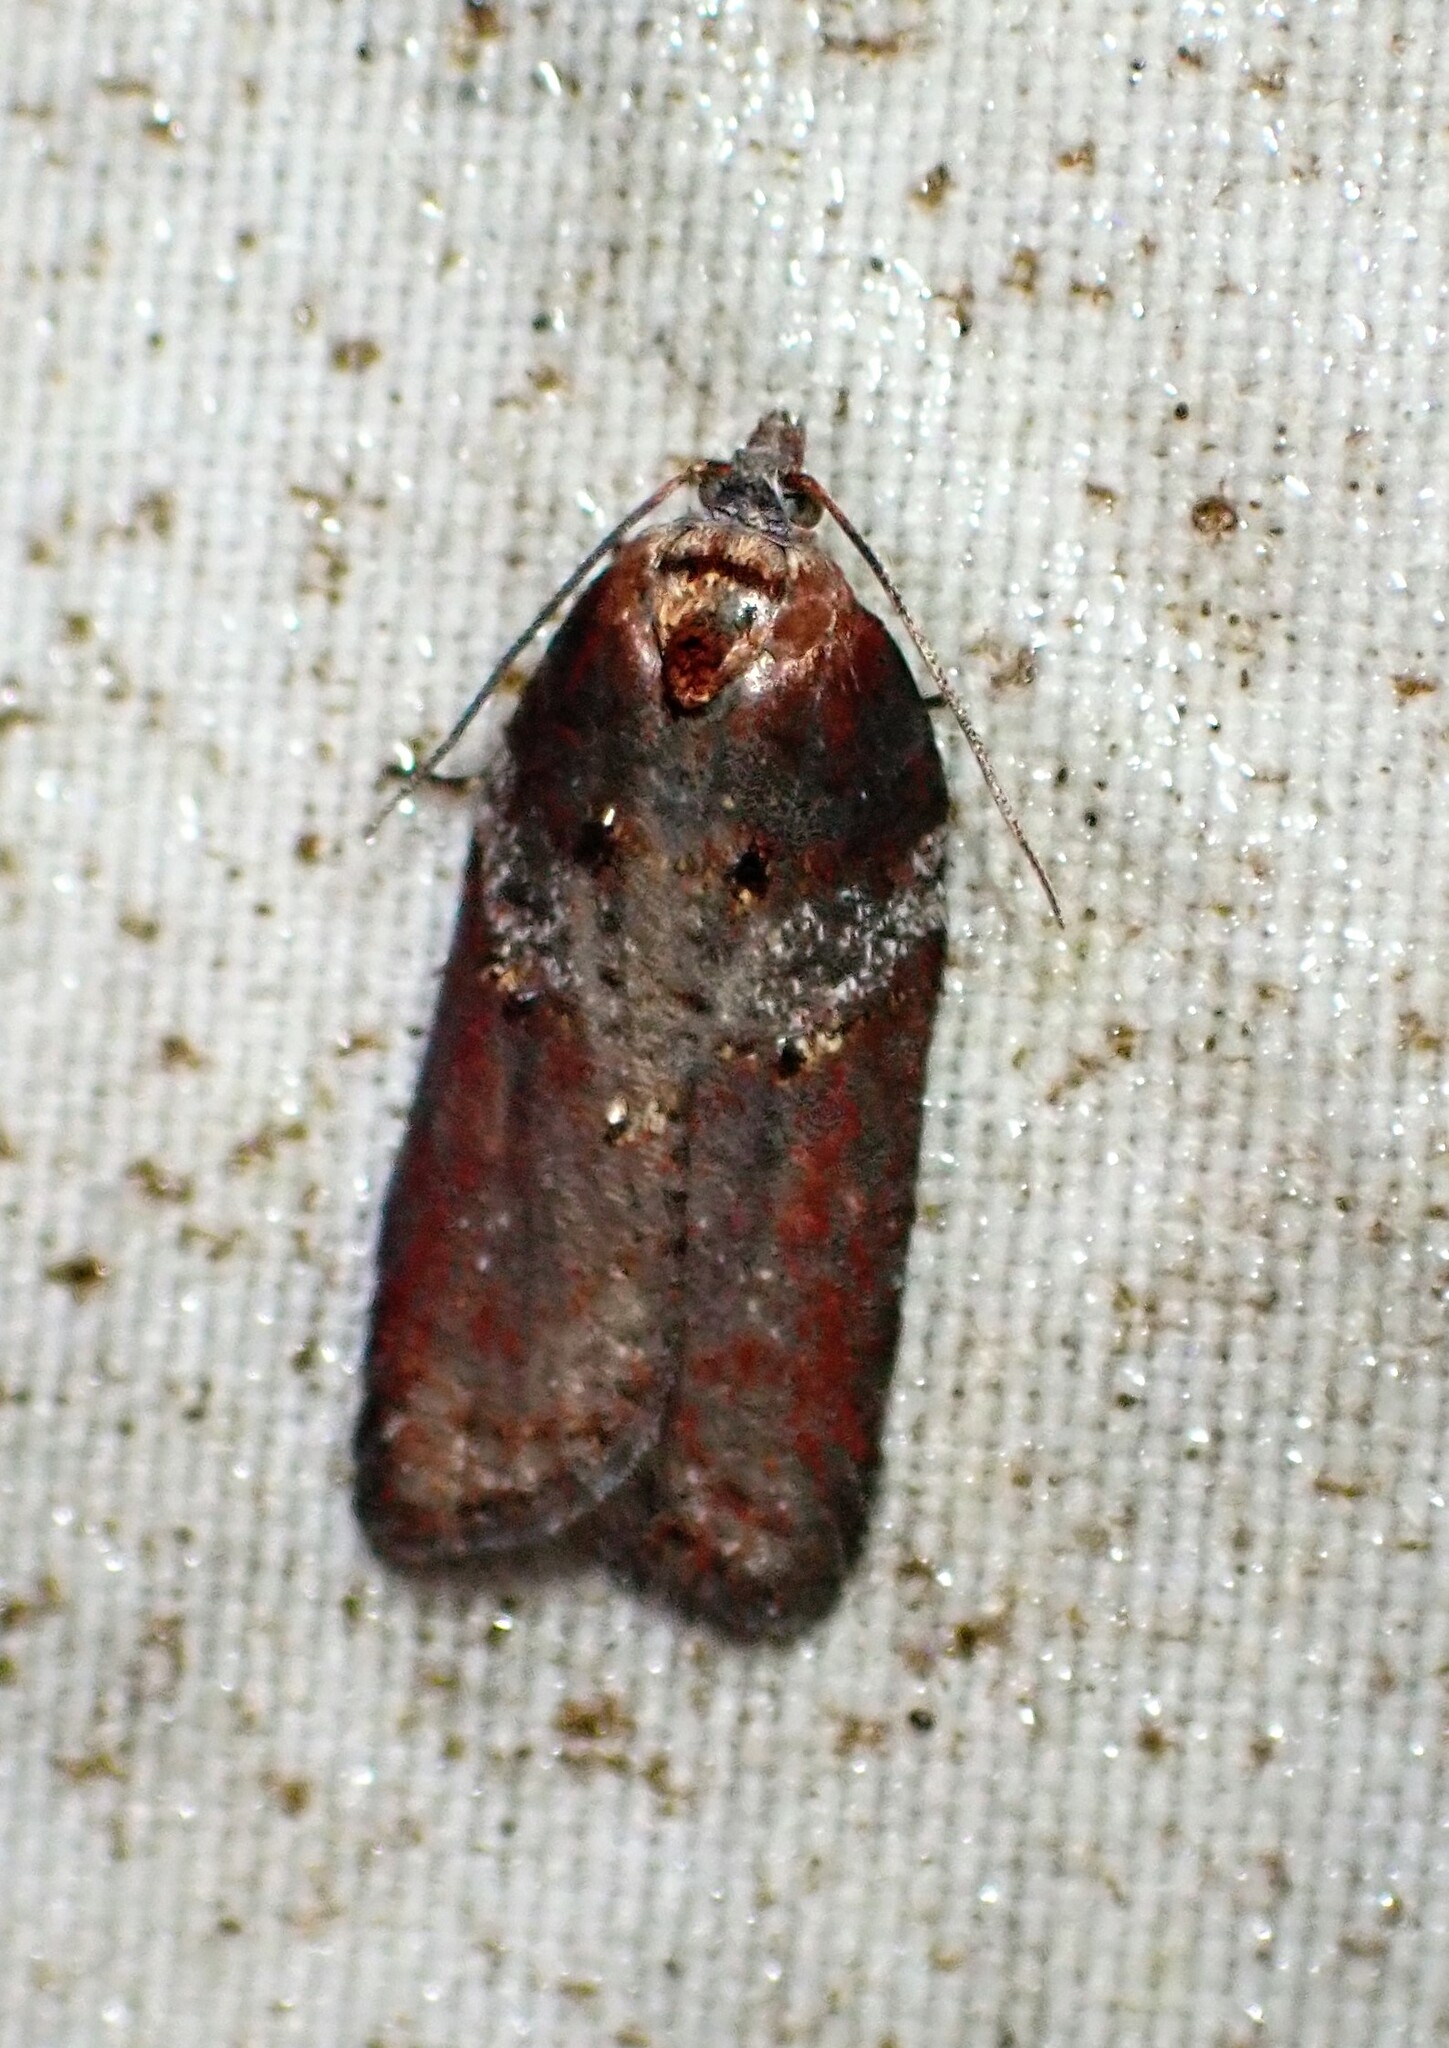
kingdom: Animalia
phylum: Arthropoda
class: Insecta
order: Lepidoptera
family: Tortricidae
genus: Acleris
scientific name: Acleris celiana
